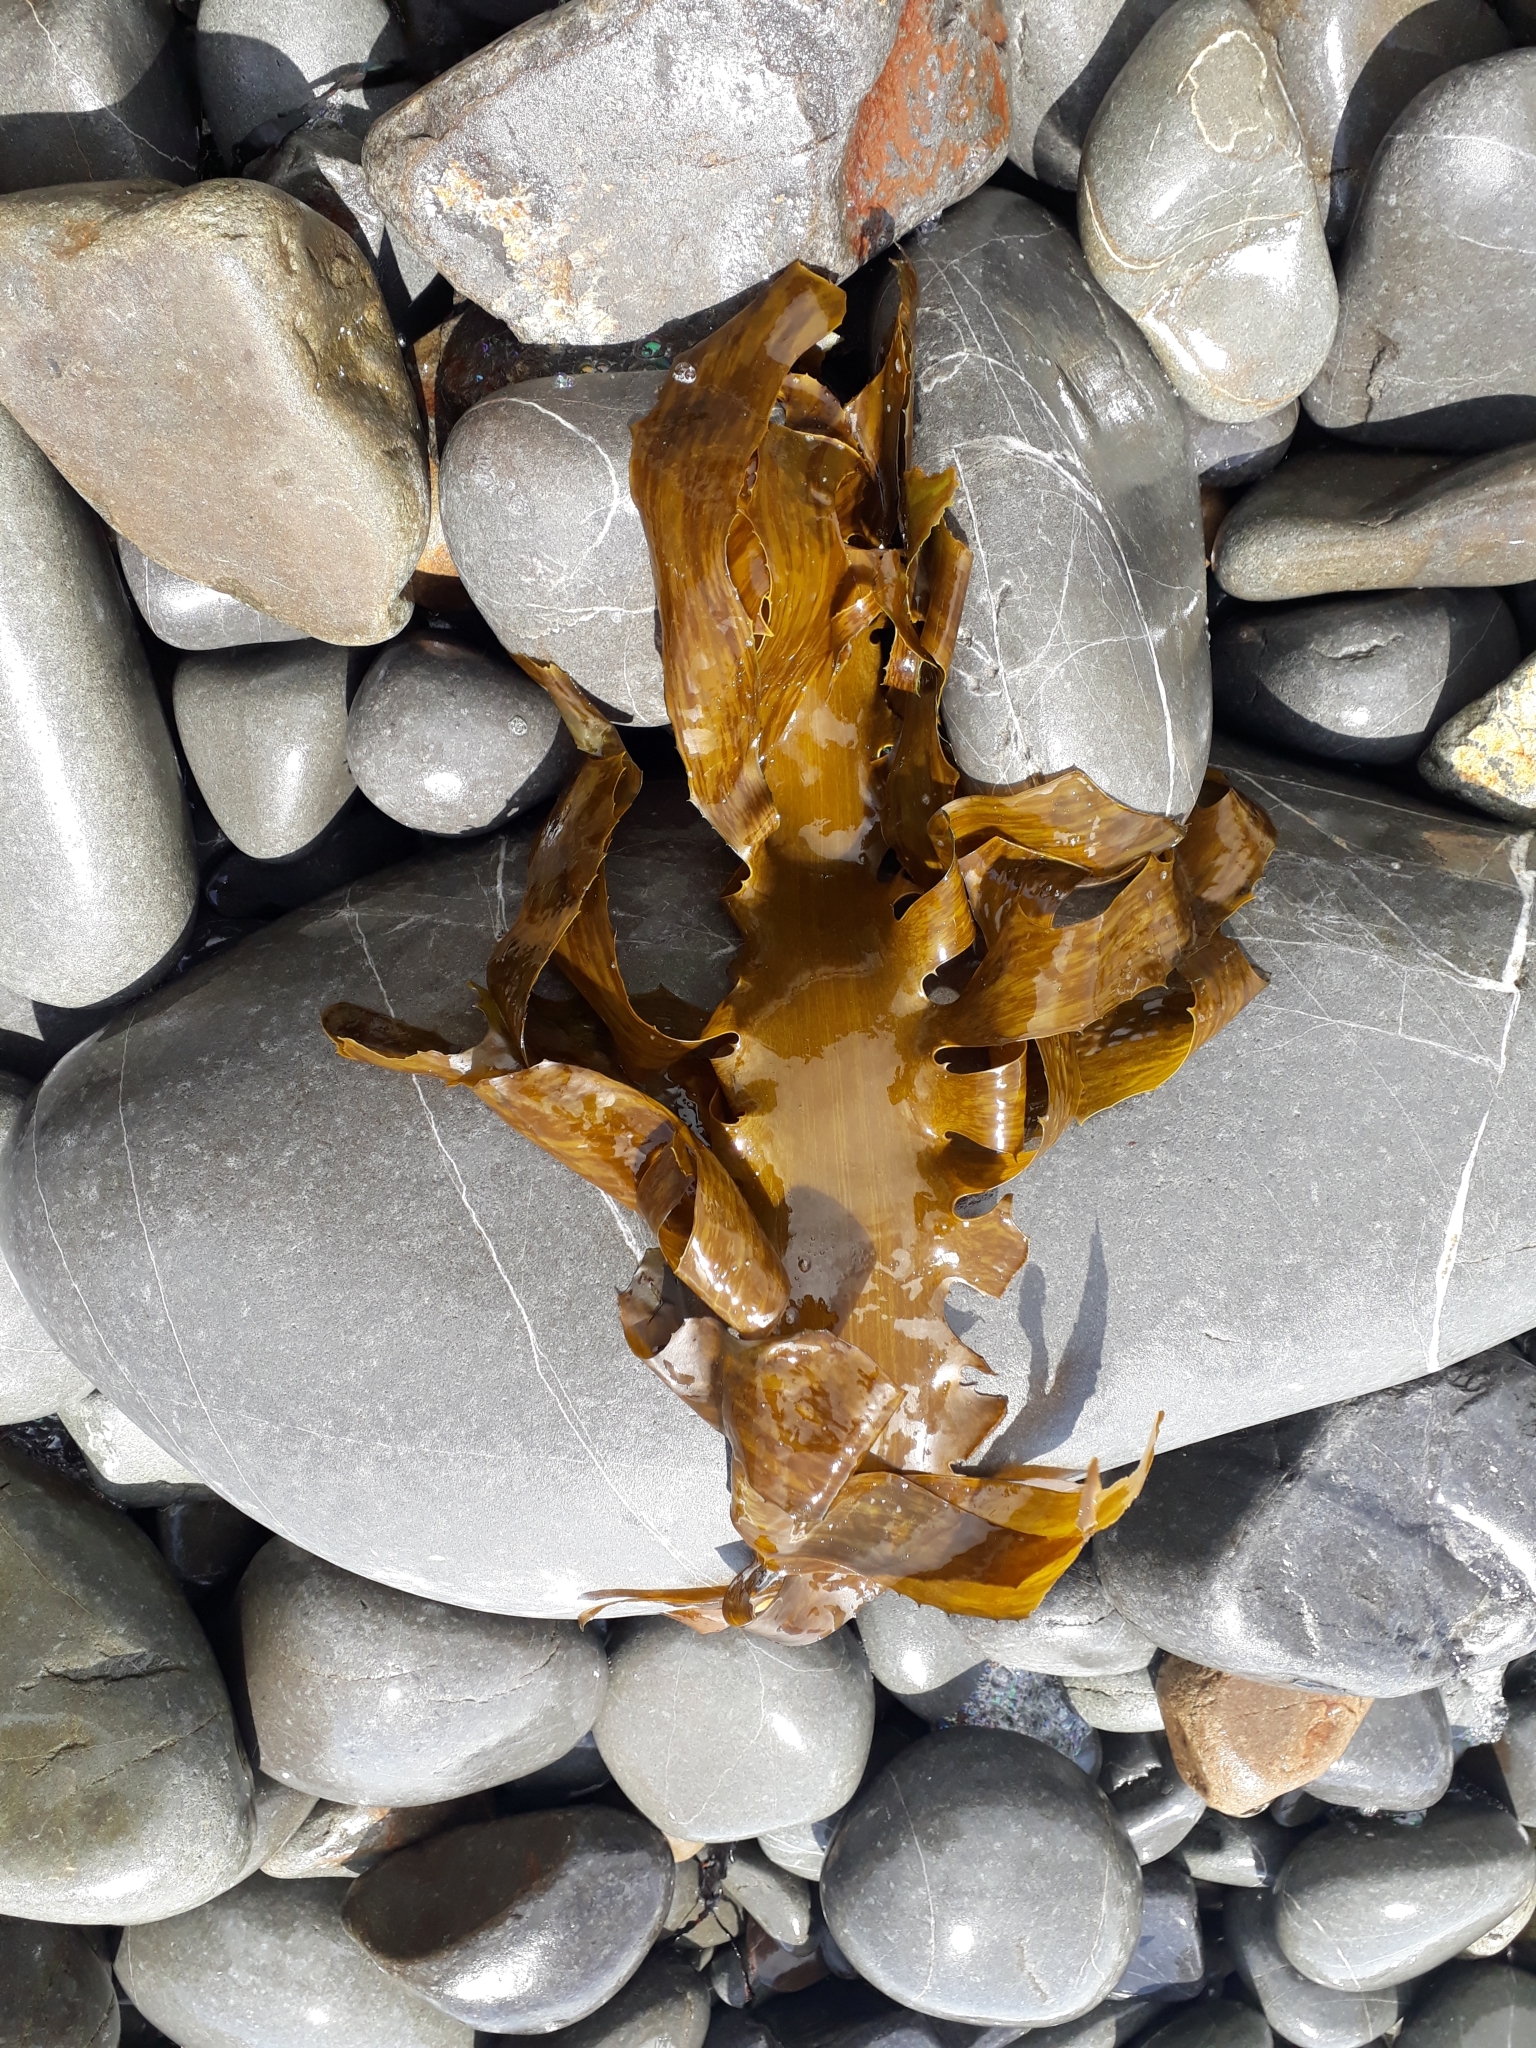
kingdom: Chromista
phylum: Ochrophyta
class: Phaeophyceae
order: Laminariales
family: Lessoniaceae
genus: Ecklonia
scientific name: Ecklonia radiata
